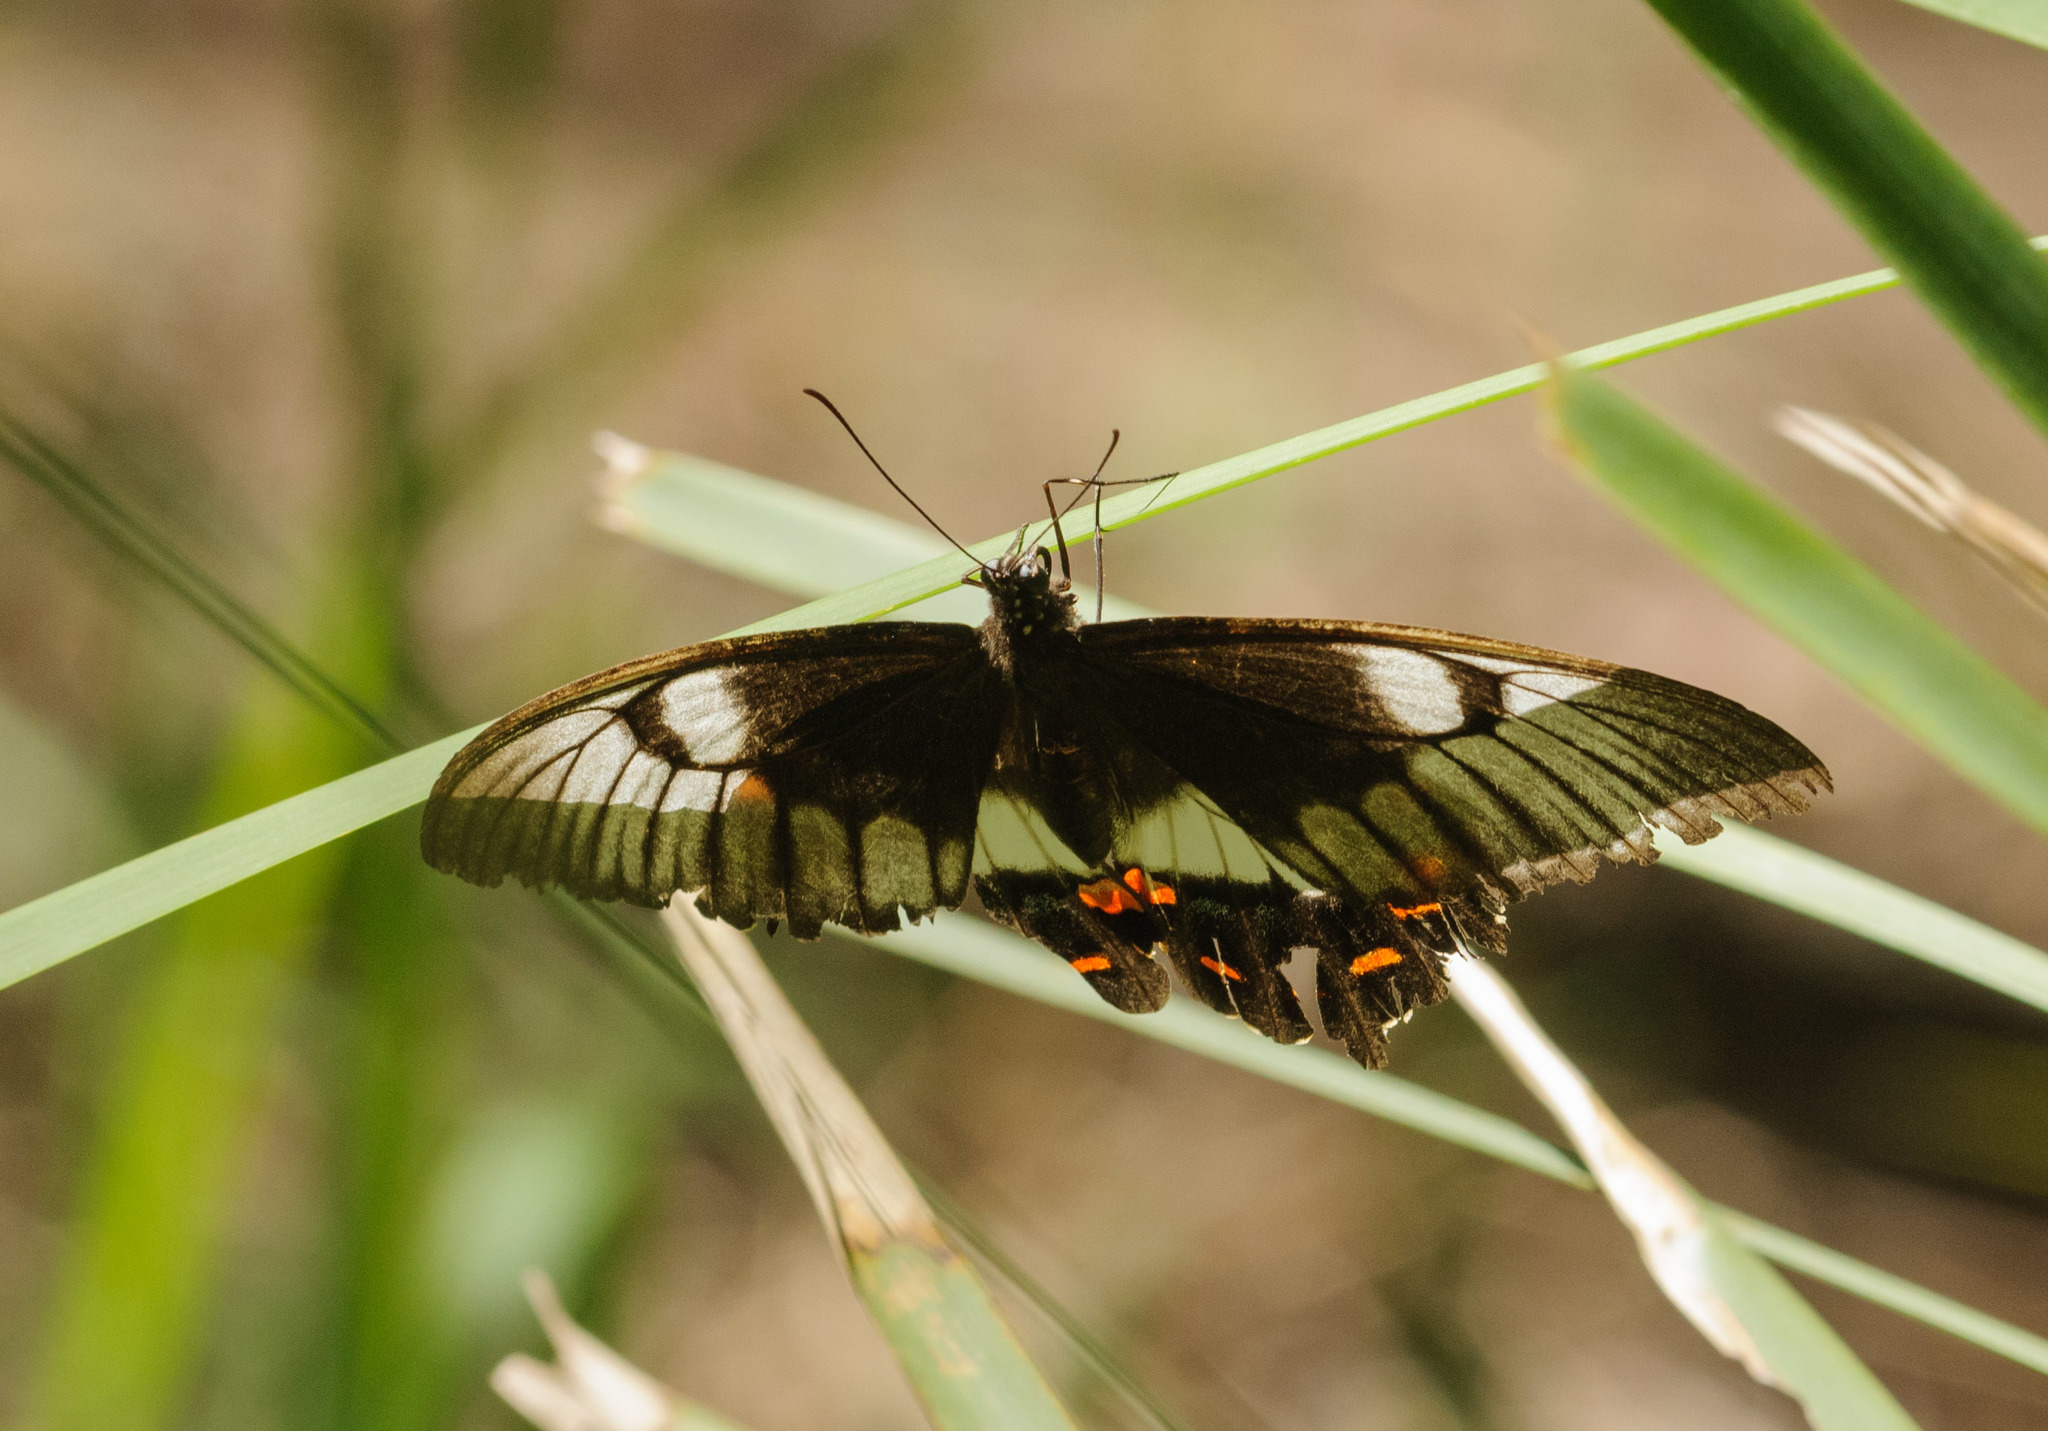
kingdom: Animalia
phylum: Arthropoda
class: Insecta
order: Lepidoptera
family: Papilionidae
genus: Papilio
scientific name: Papilio aegeus
